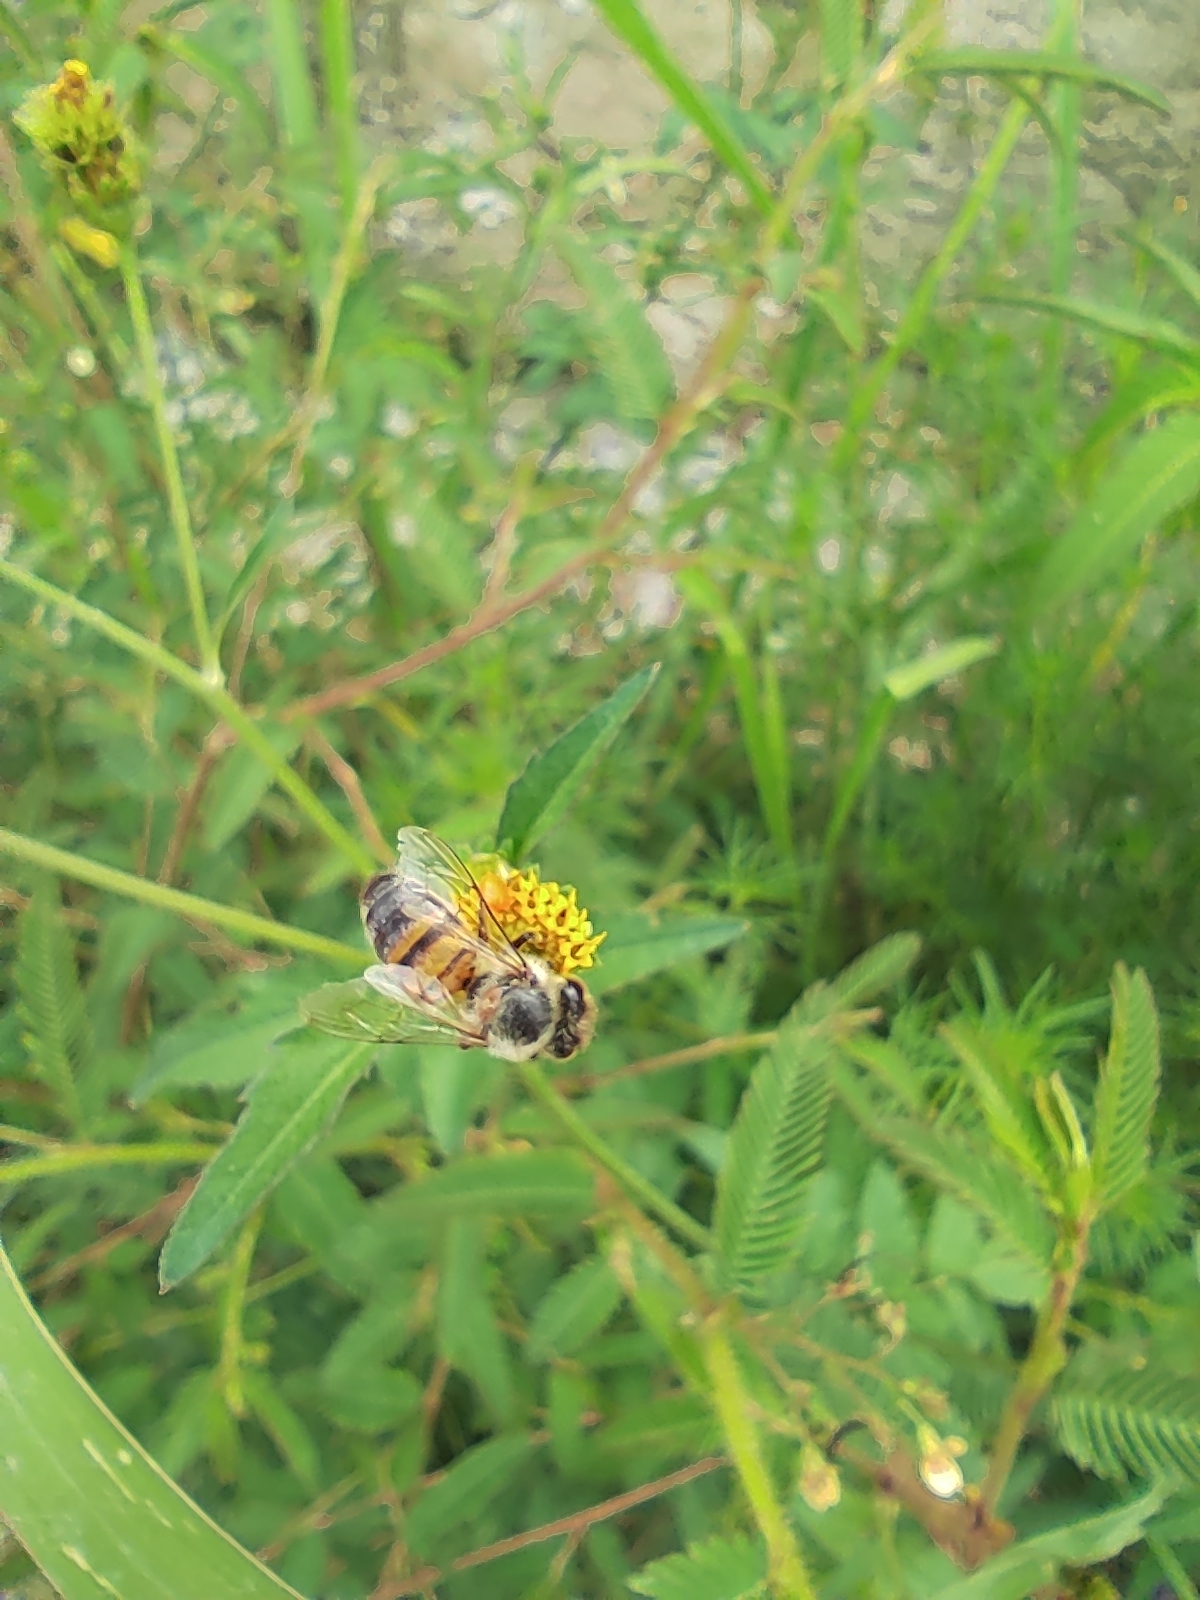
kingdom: Animalia
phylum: Arthropoda
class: Insecta
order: Hymenoptera
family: Apidae
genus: Apis
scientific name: Apis mellifera
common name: Honey bee
